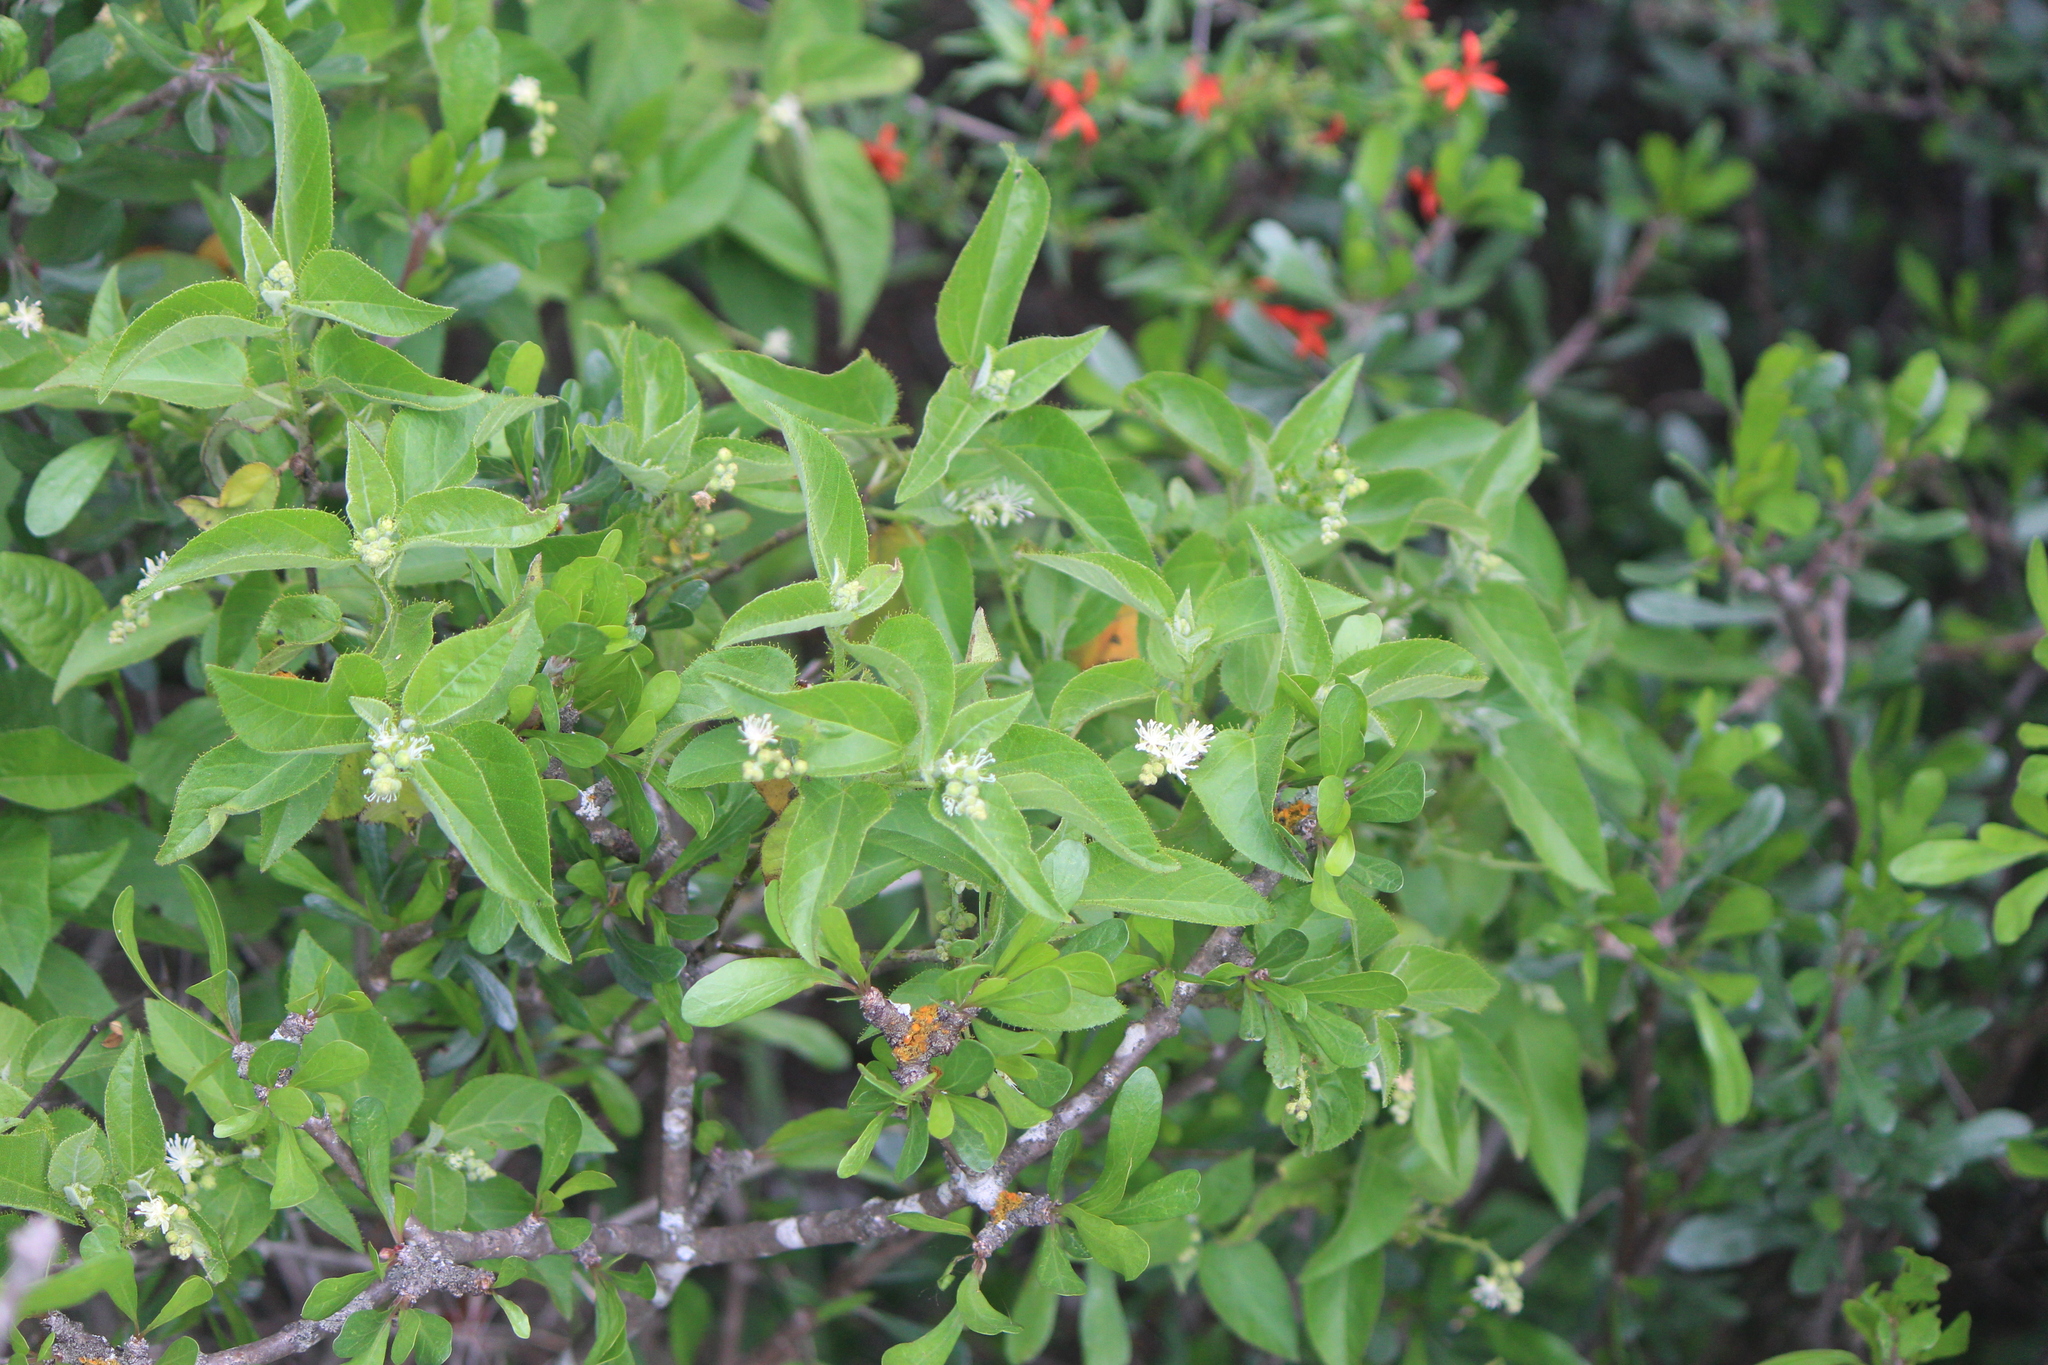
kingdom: Plantae
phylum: Tracheophyta
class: Magnoliopsida
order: Malpighiales
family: Euphorbiaceae
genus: Croton
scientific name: Croton ciliatoglandulifer
